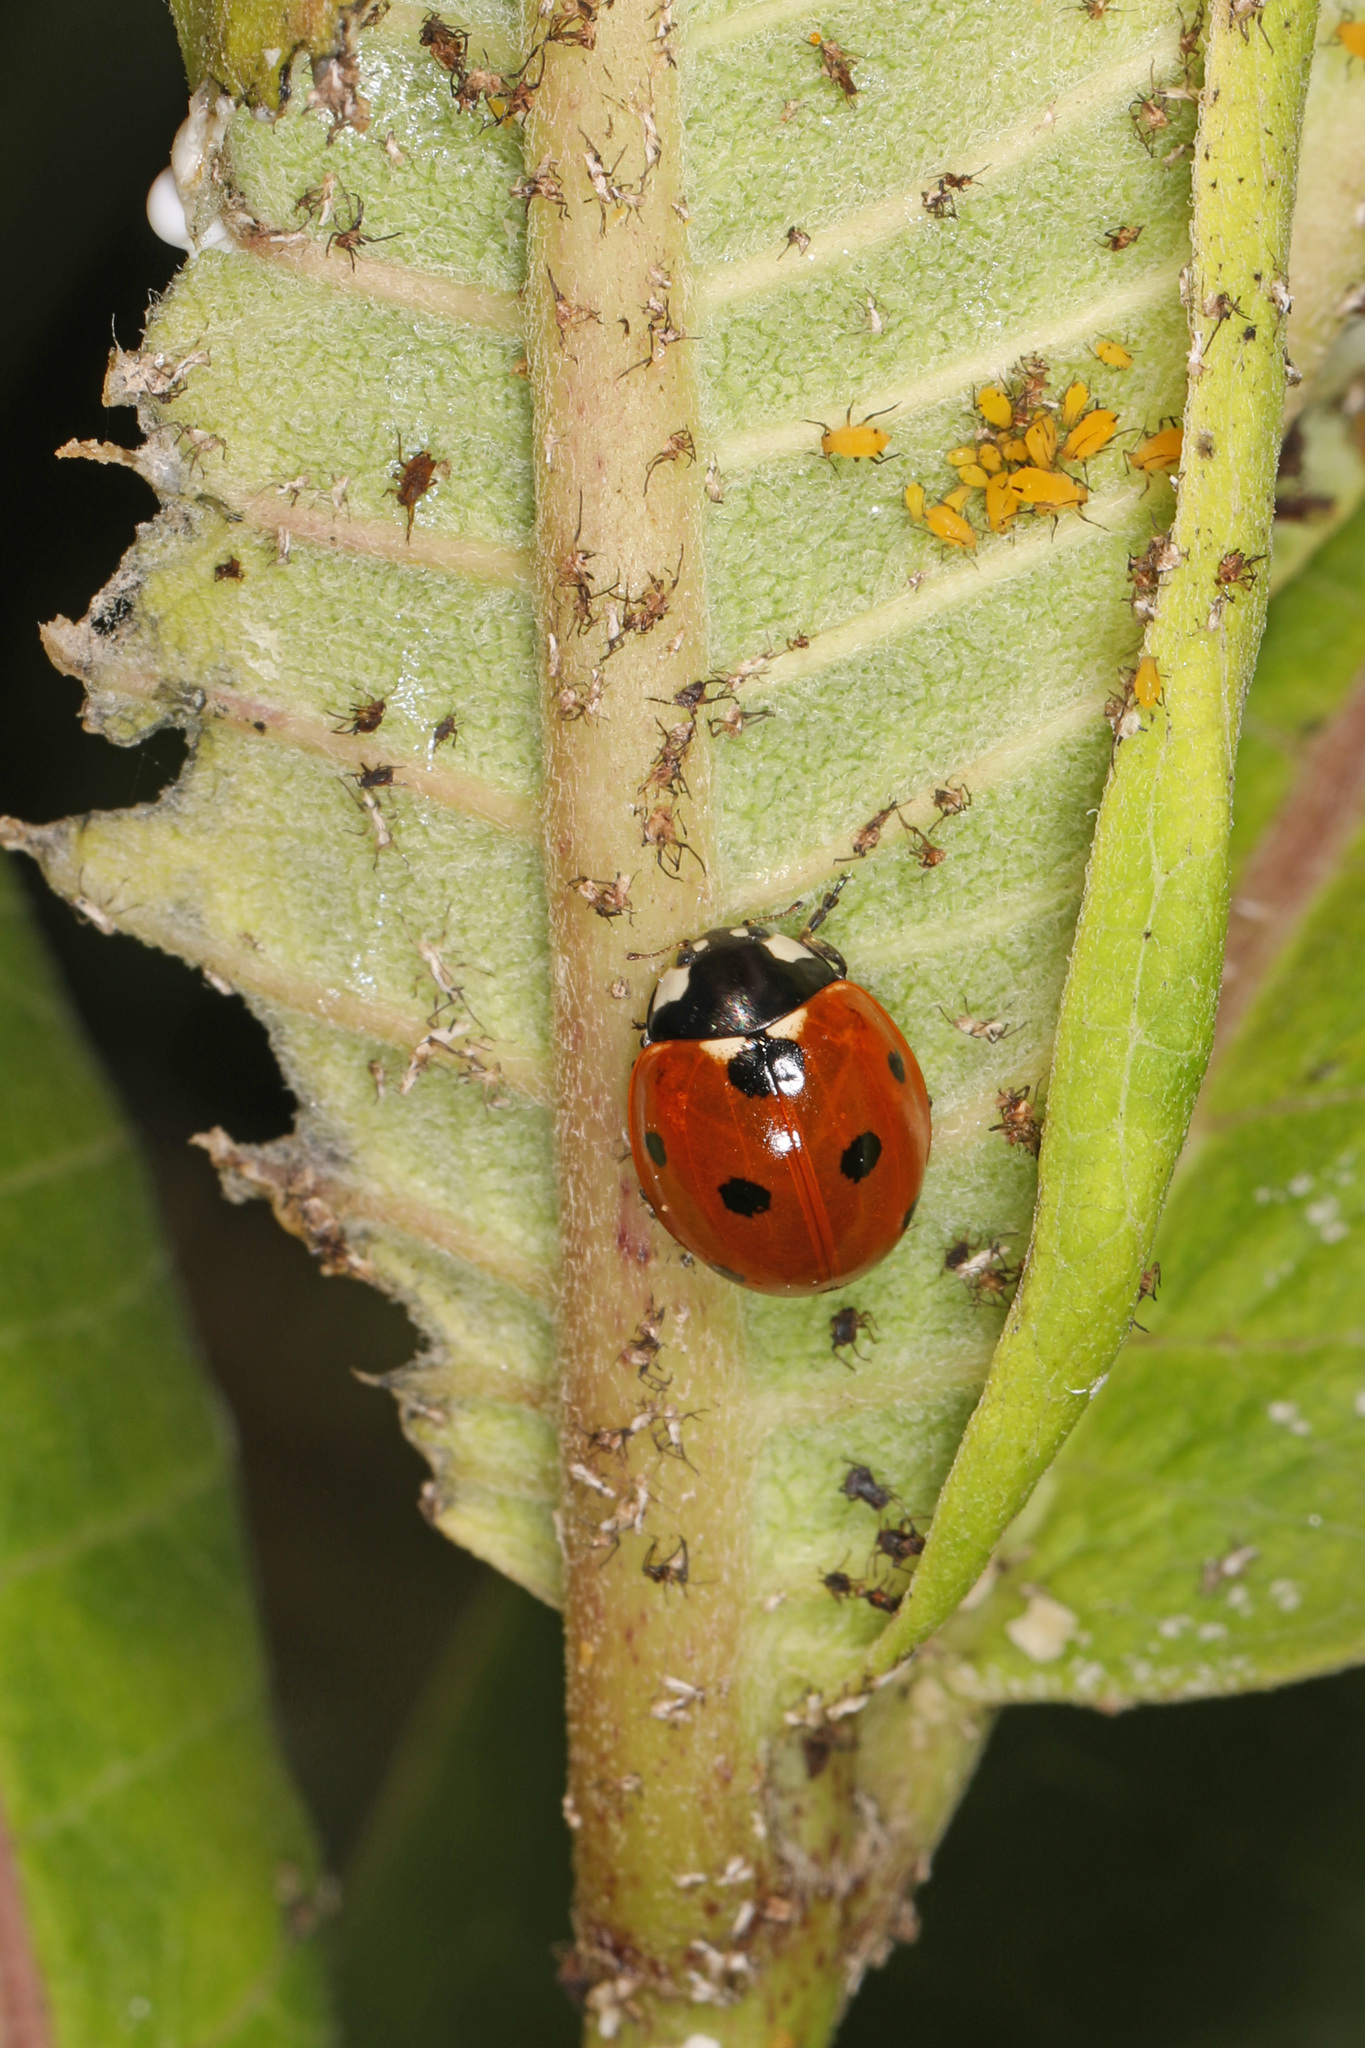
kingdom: Animalia
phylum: Arthropoda
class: Insecta
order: Coleoptera
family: Coccinellidae
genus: Coccinella
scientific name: Coccinella septempunctata
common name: Sevenspotted lady beetle
